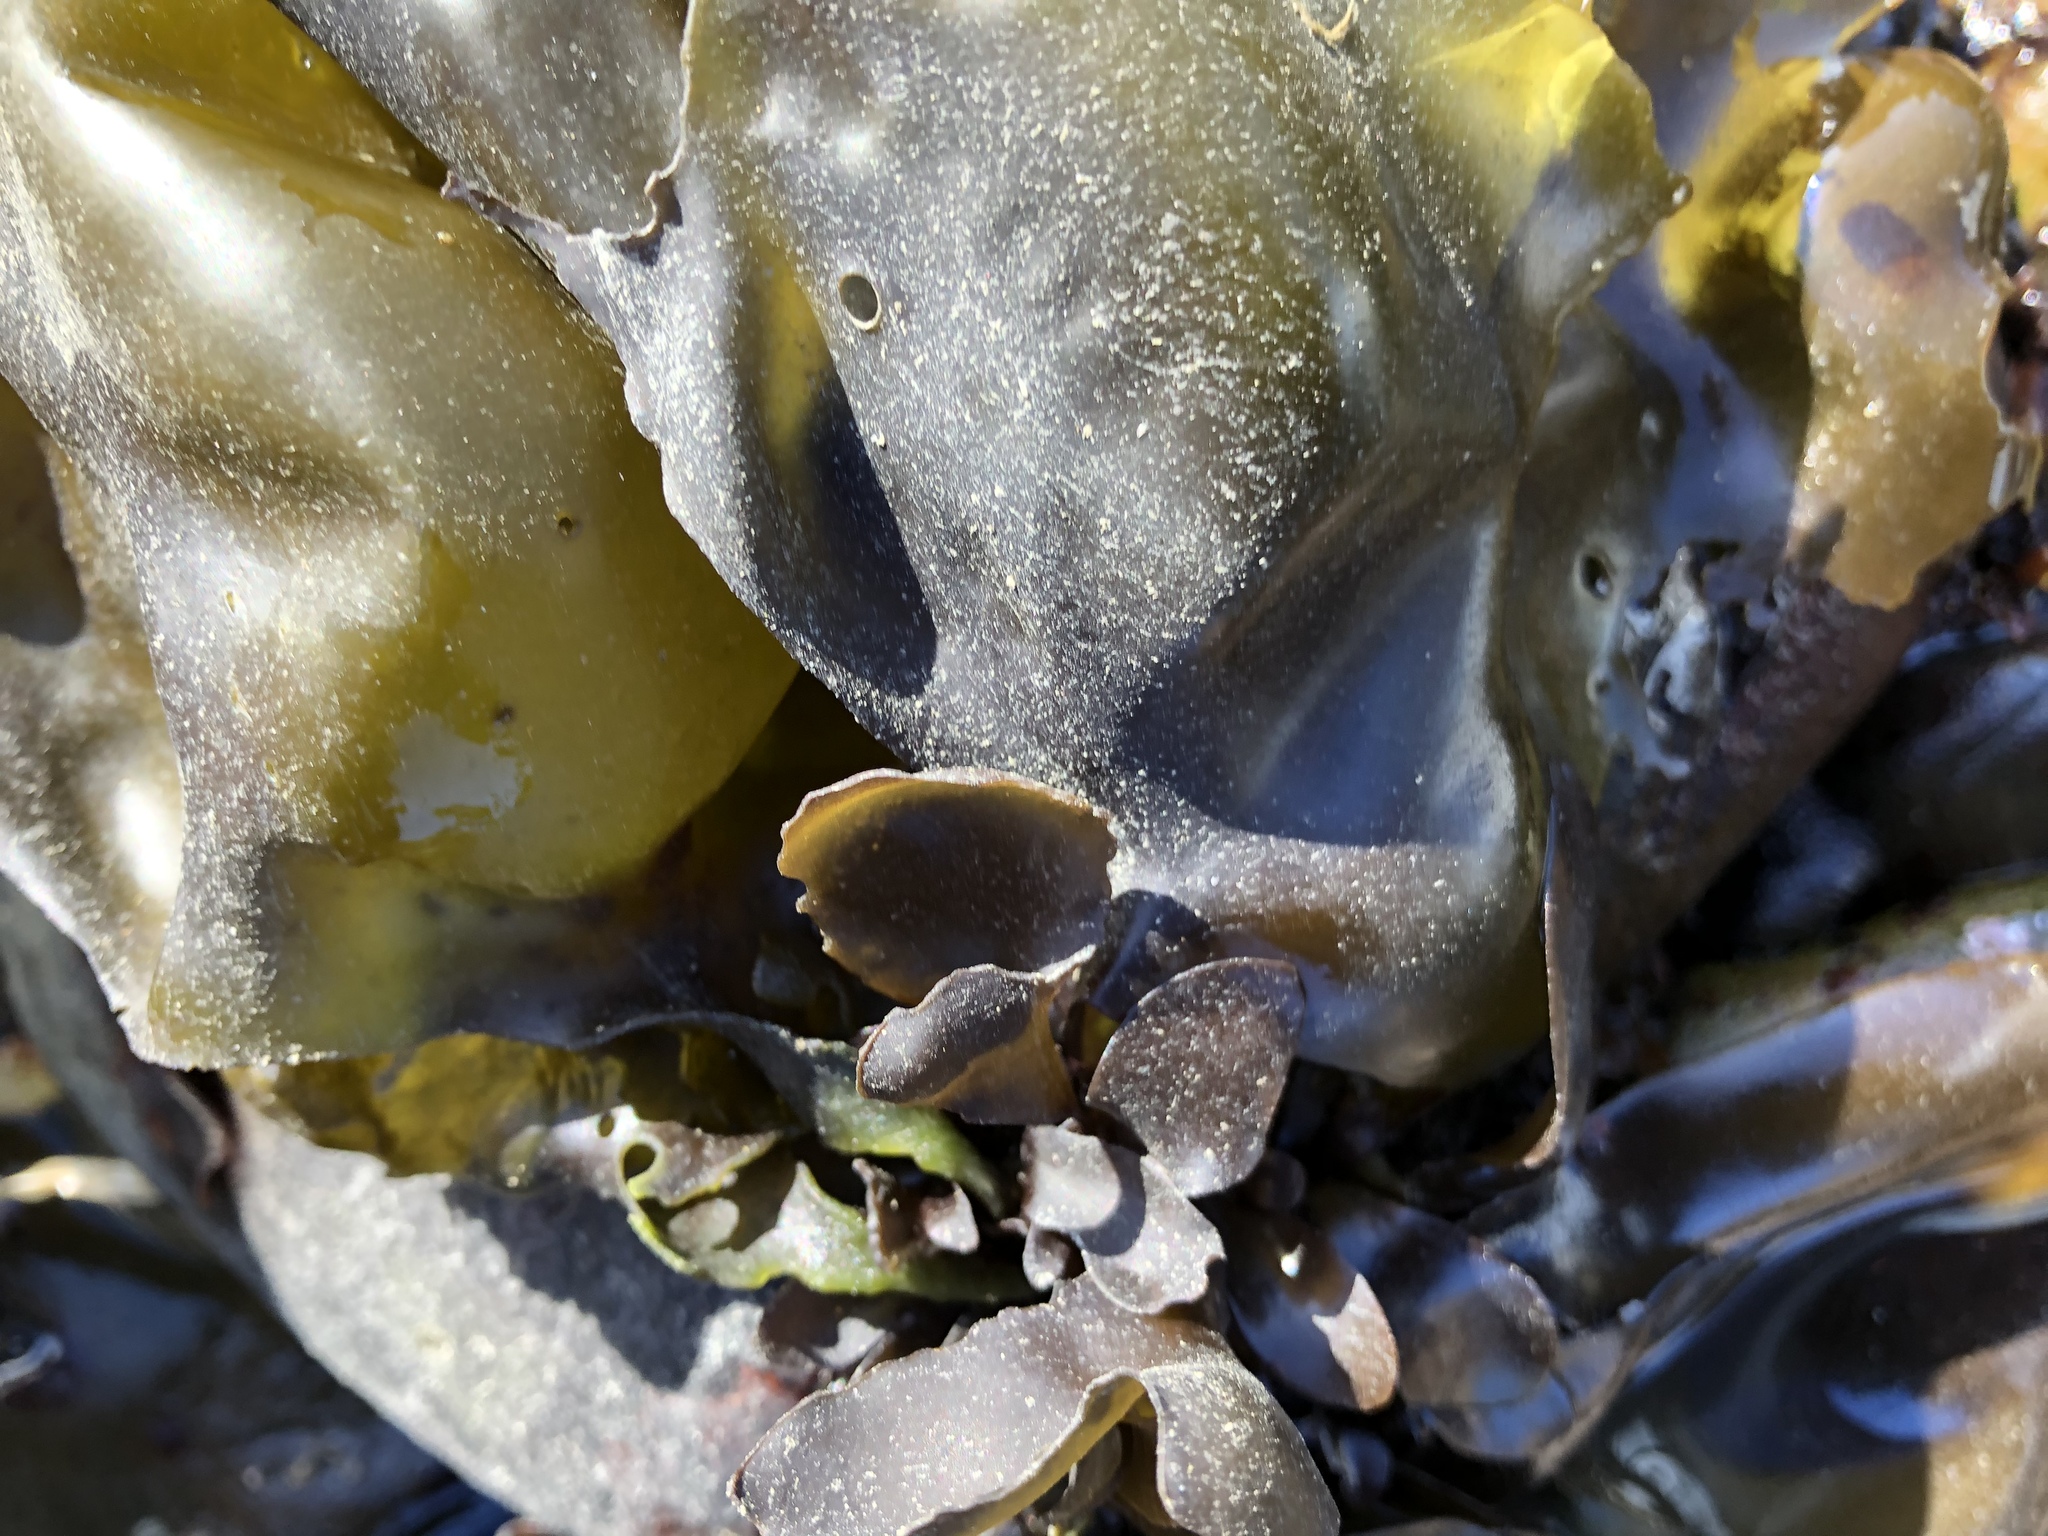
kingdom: Plantae
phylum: Rhodophyta
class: Florideophyceae
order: Gigartinales
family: Gigartinaceae
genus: Mazzaella
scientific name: Mazzaella flaccida
